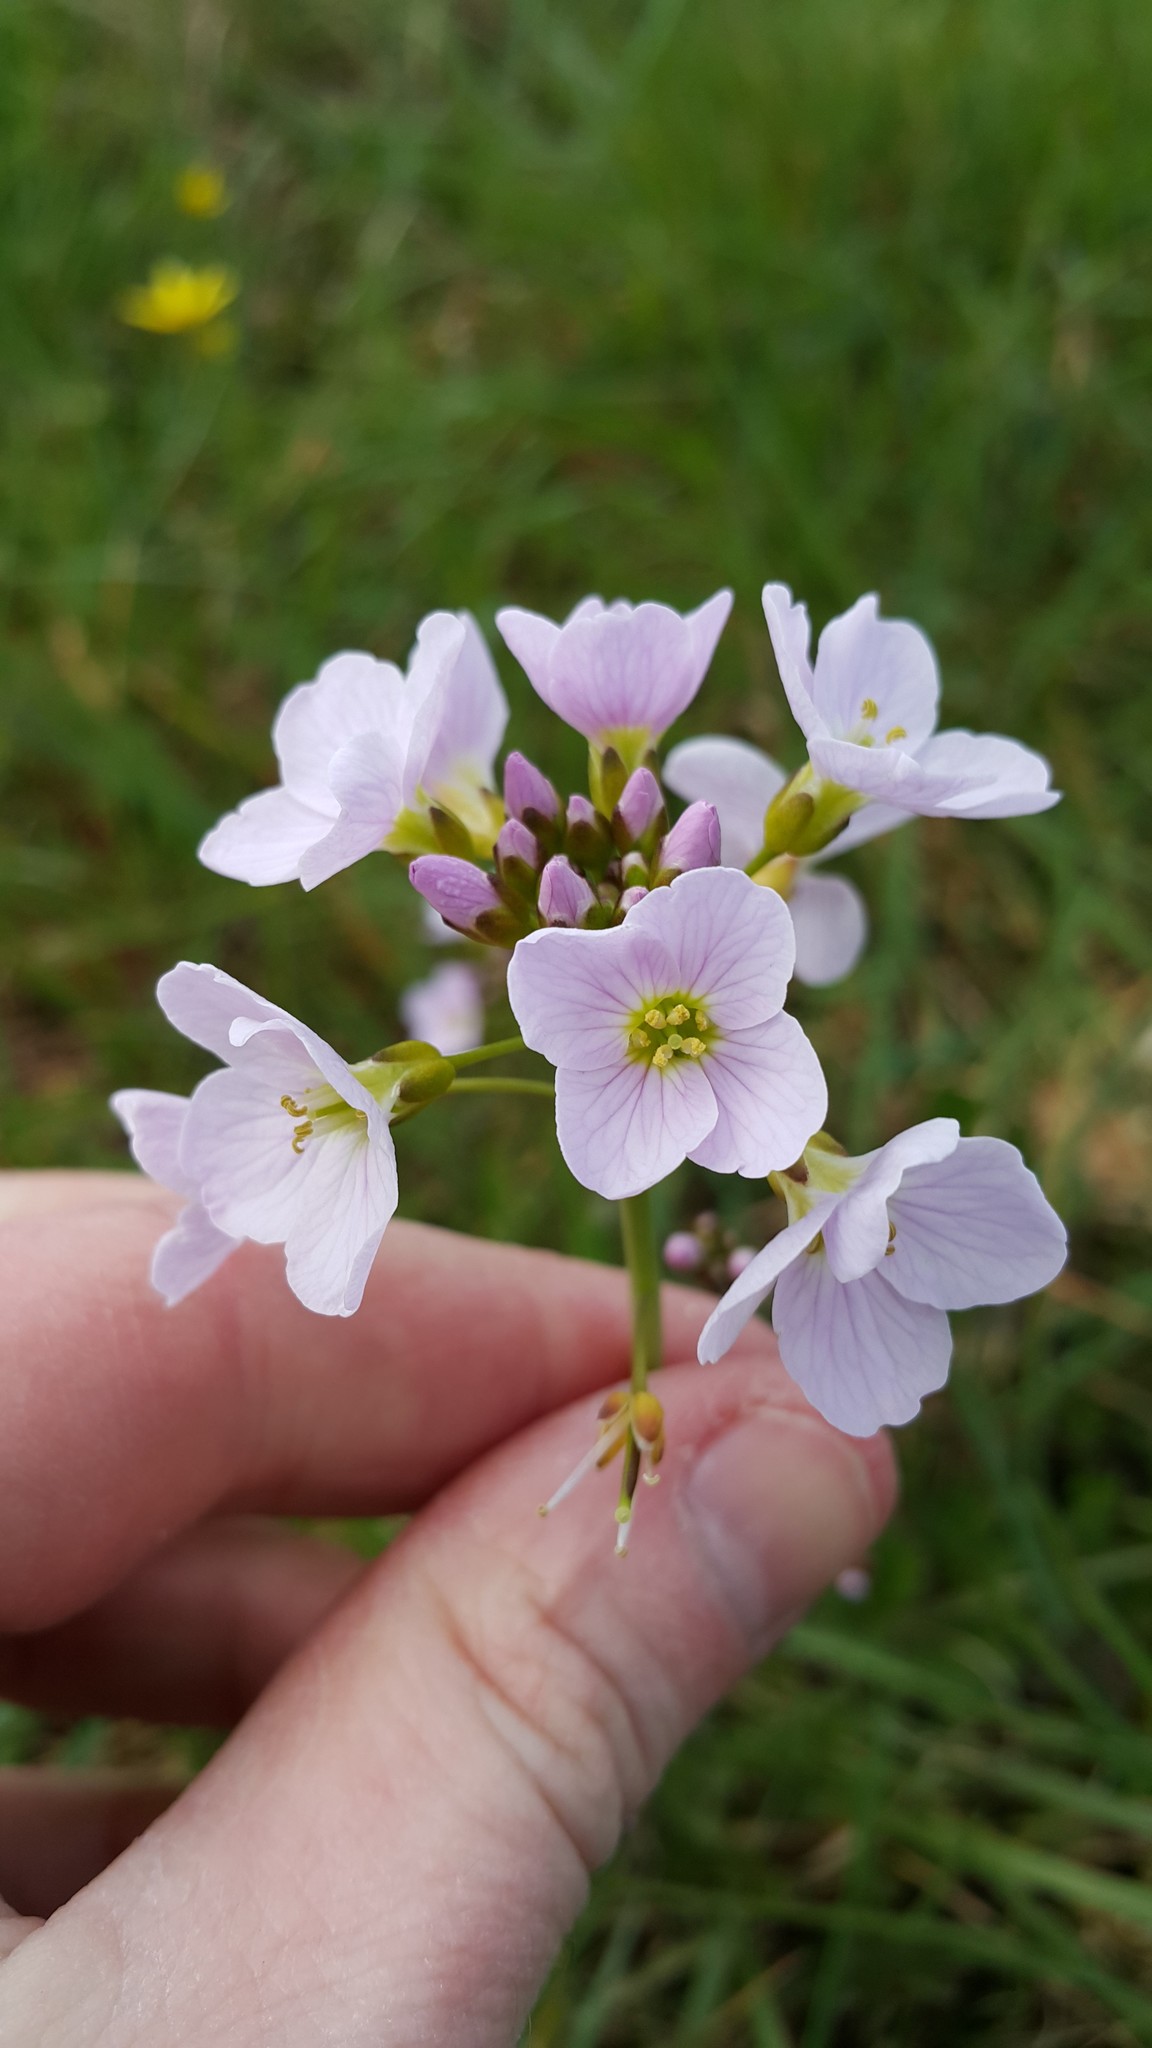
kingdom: Plantae
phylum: Tracheophyta
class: Magnoliopsida
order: Brassicales
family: Brassicaceae
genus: Cardamine
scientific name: Cardamine pratensis
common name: Cuckoo flower
